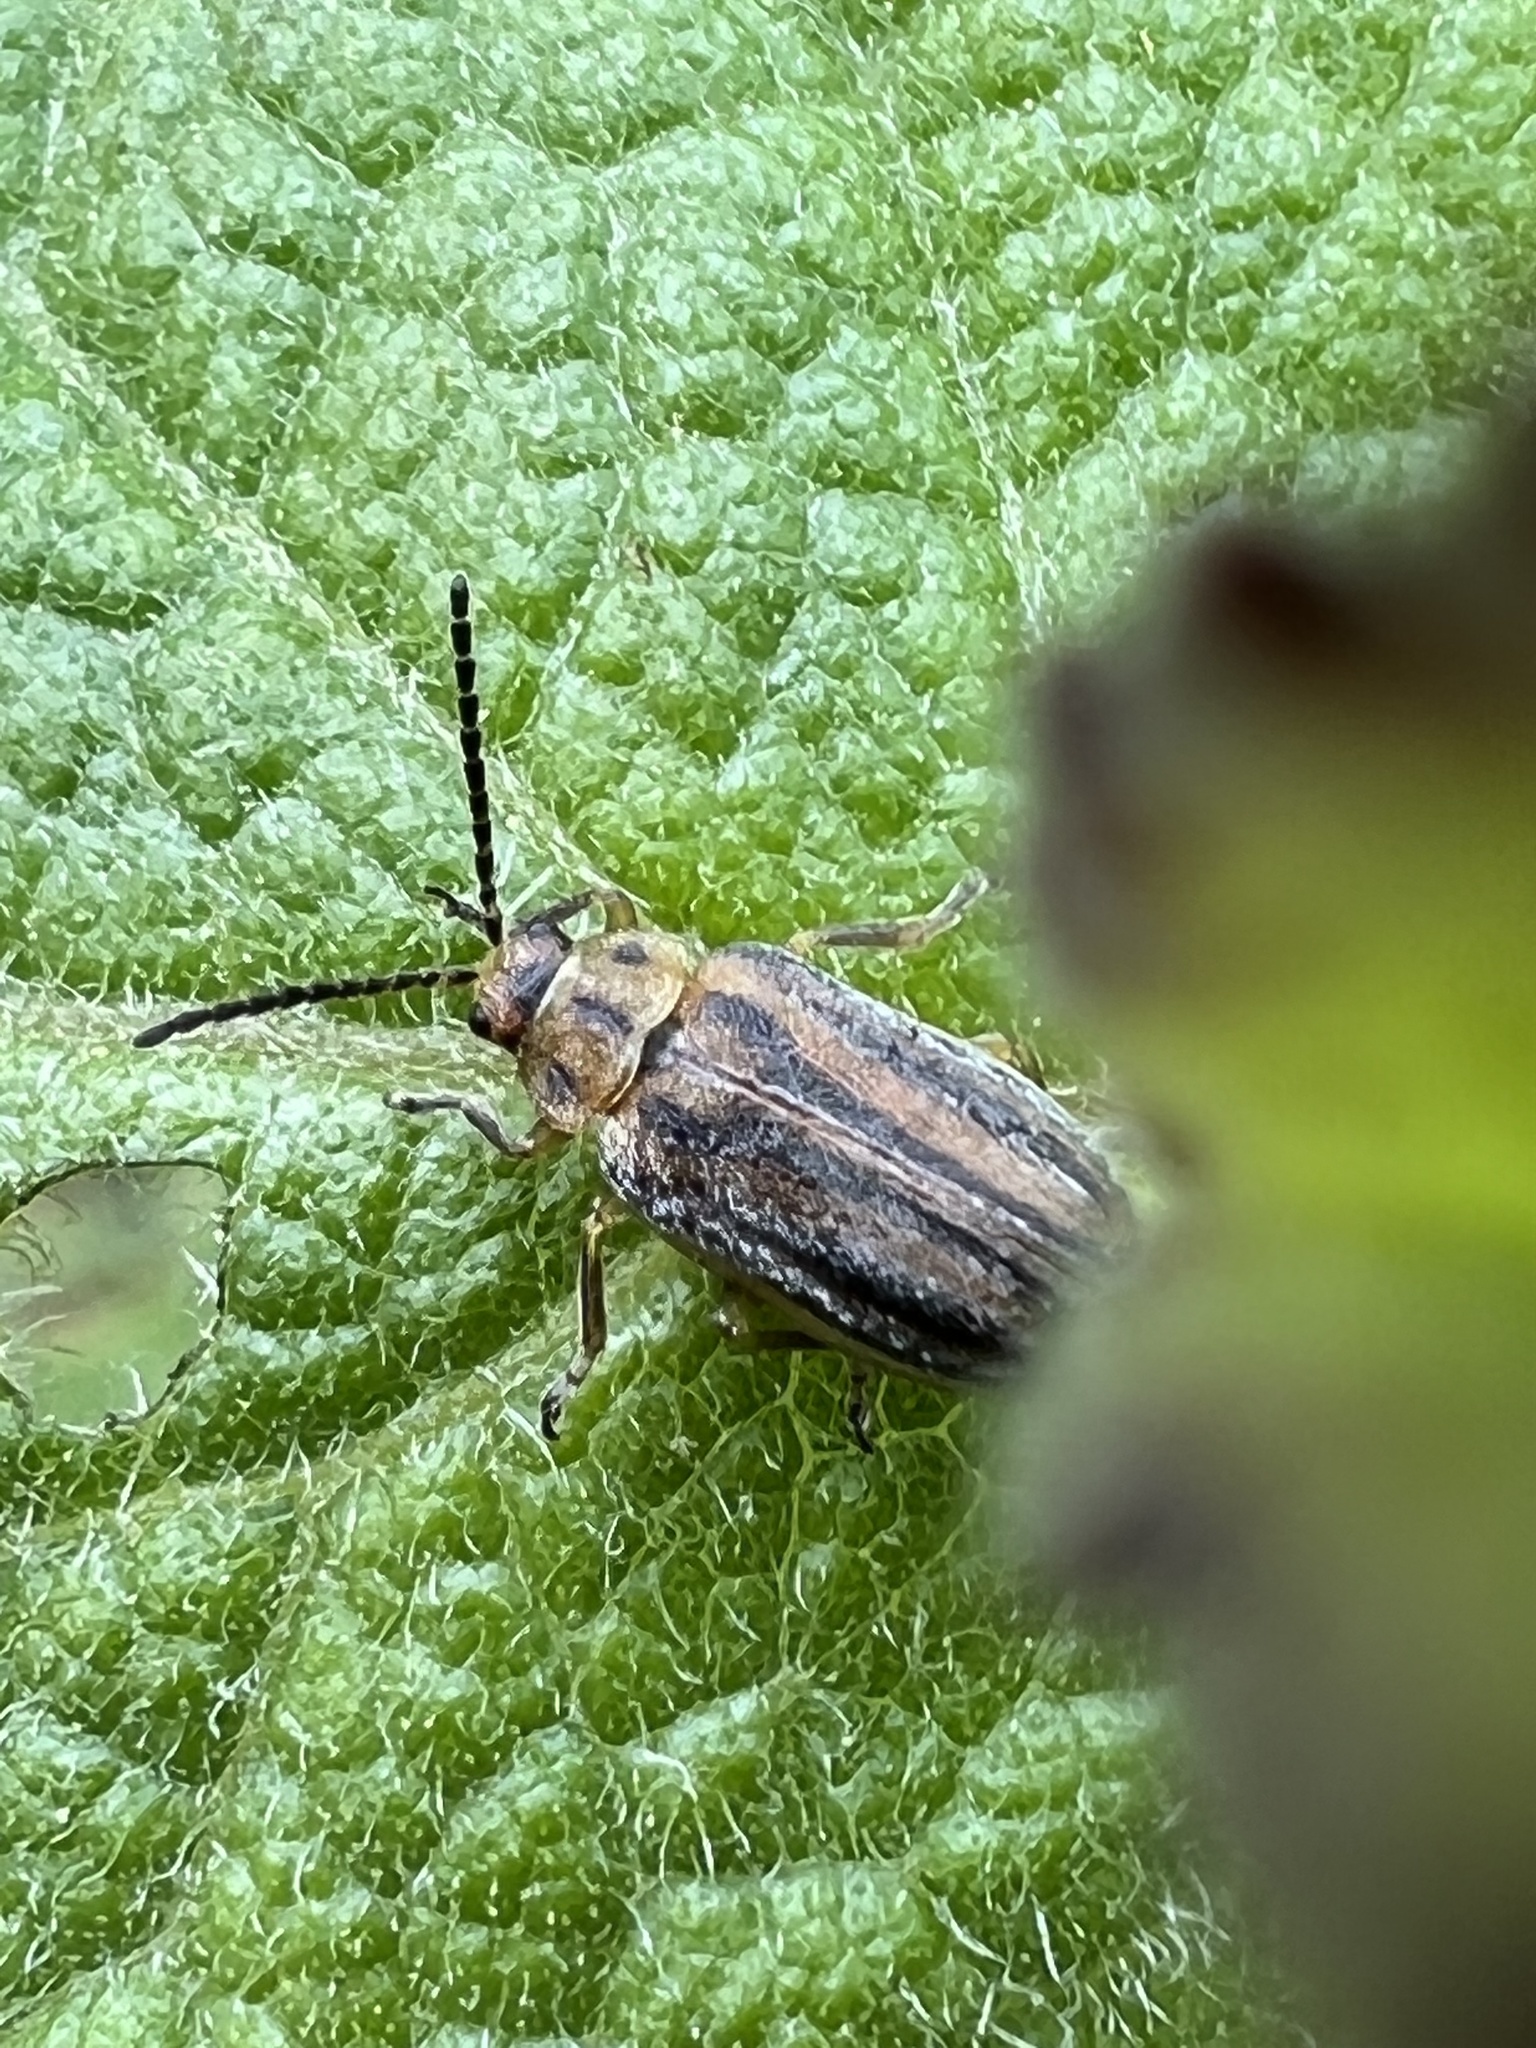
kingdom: Animalia
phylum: Arthropoda
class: Insecta
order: Coleoptera
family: Chrysomelidae
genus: Ophraella
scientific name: Ophraella conferta
